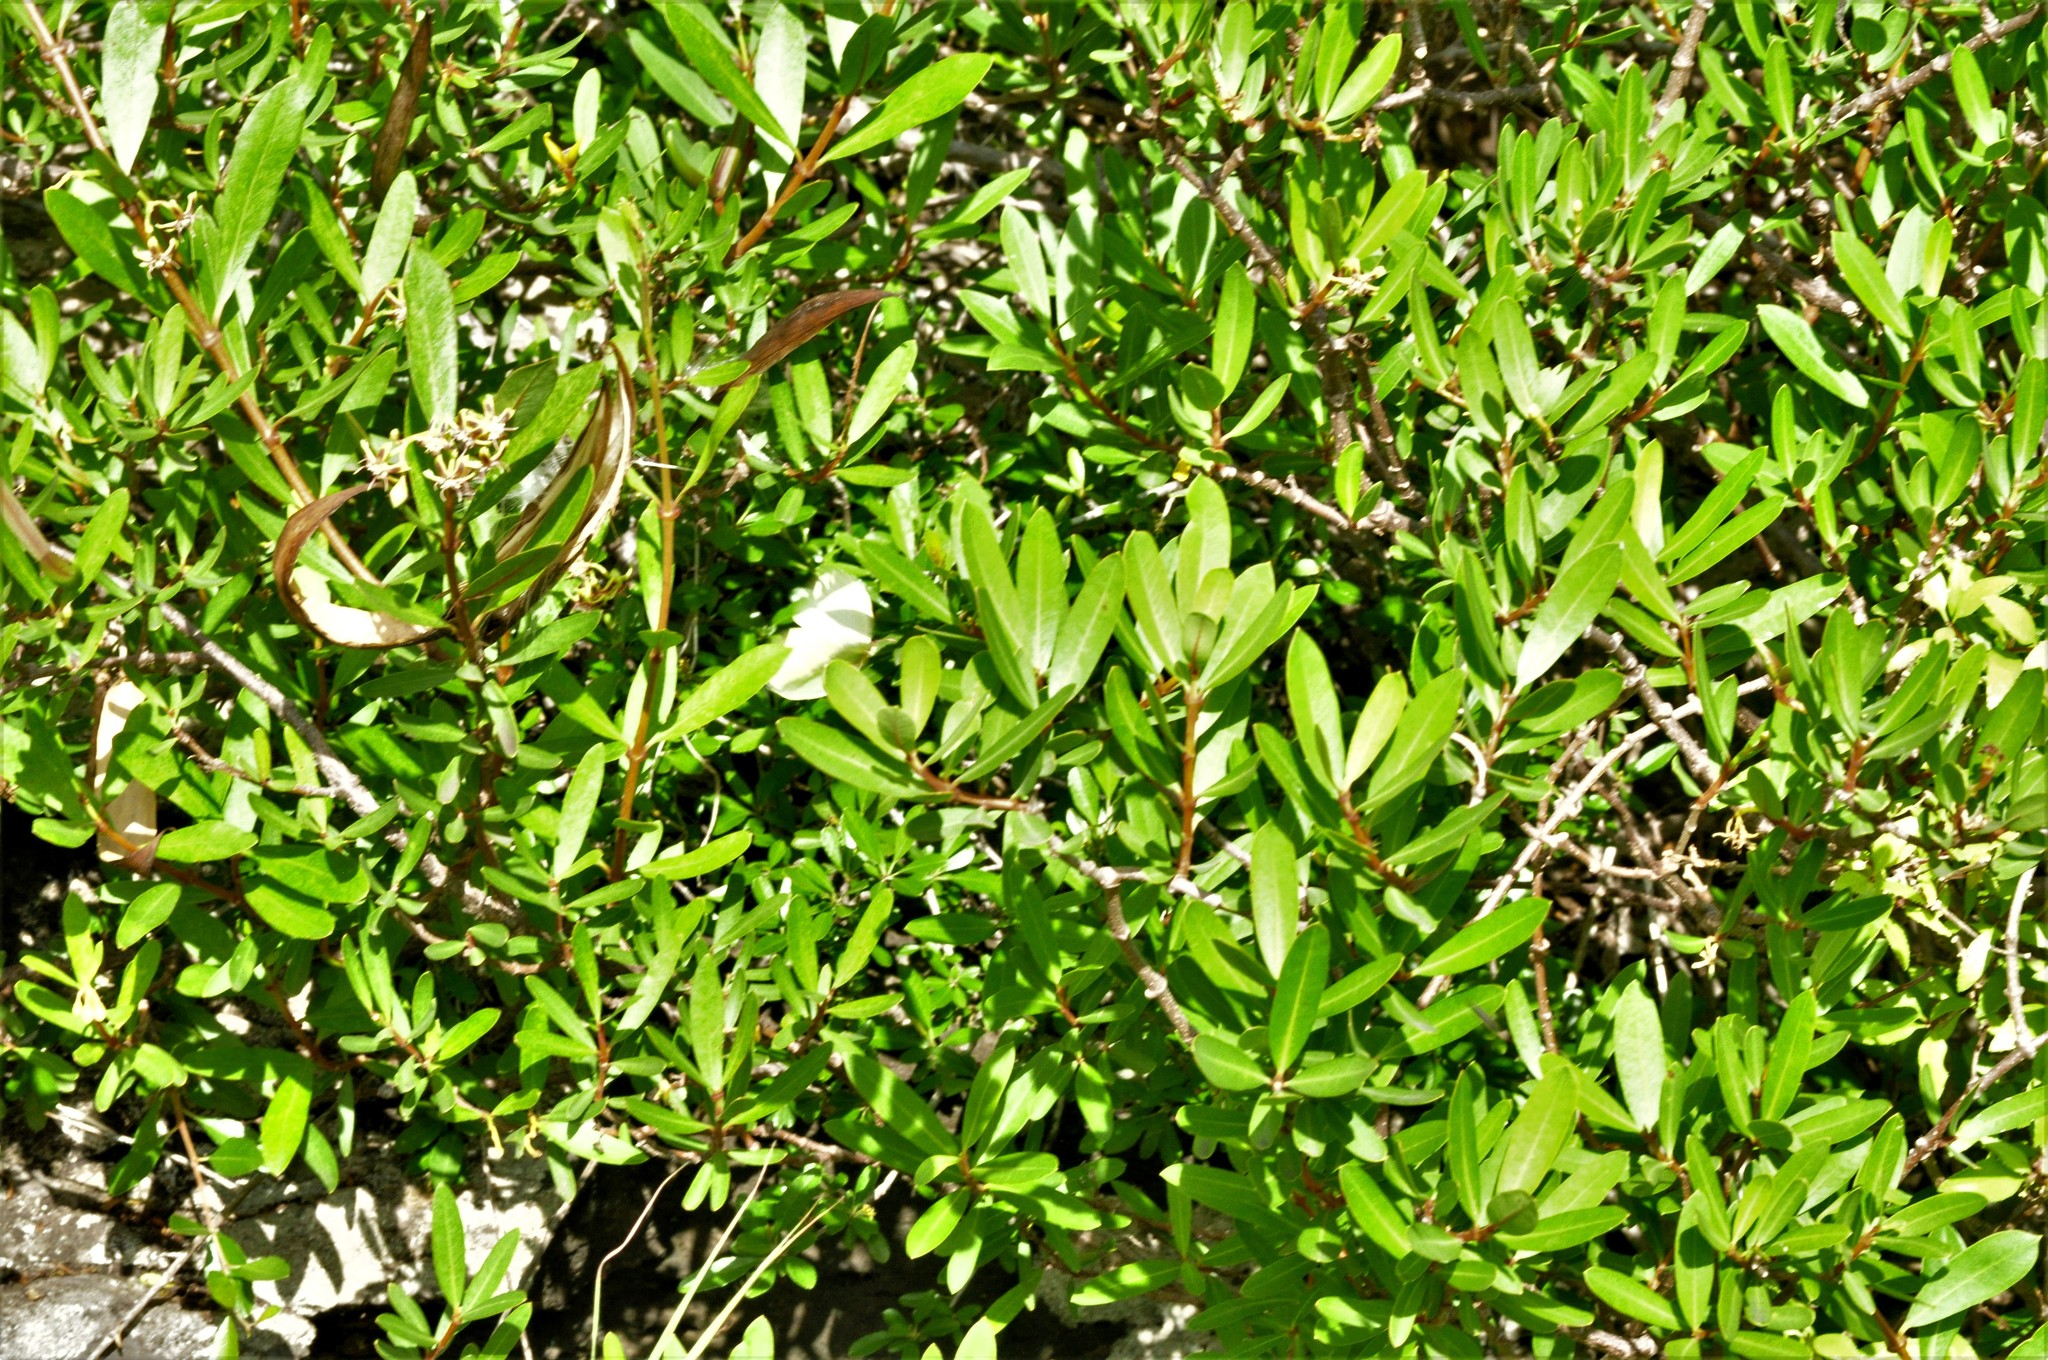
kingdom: Animalia
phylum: Arthropoda
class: Insecta
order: Lepidoptera
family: Pieridae
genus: Gonepteryx
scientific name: Gonepteryx cleobule
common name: Canary brimstone
